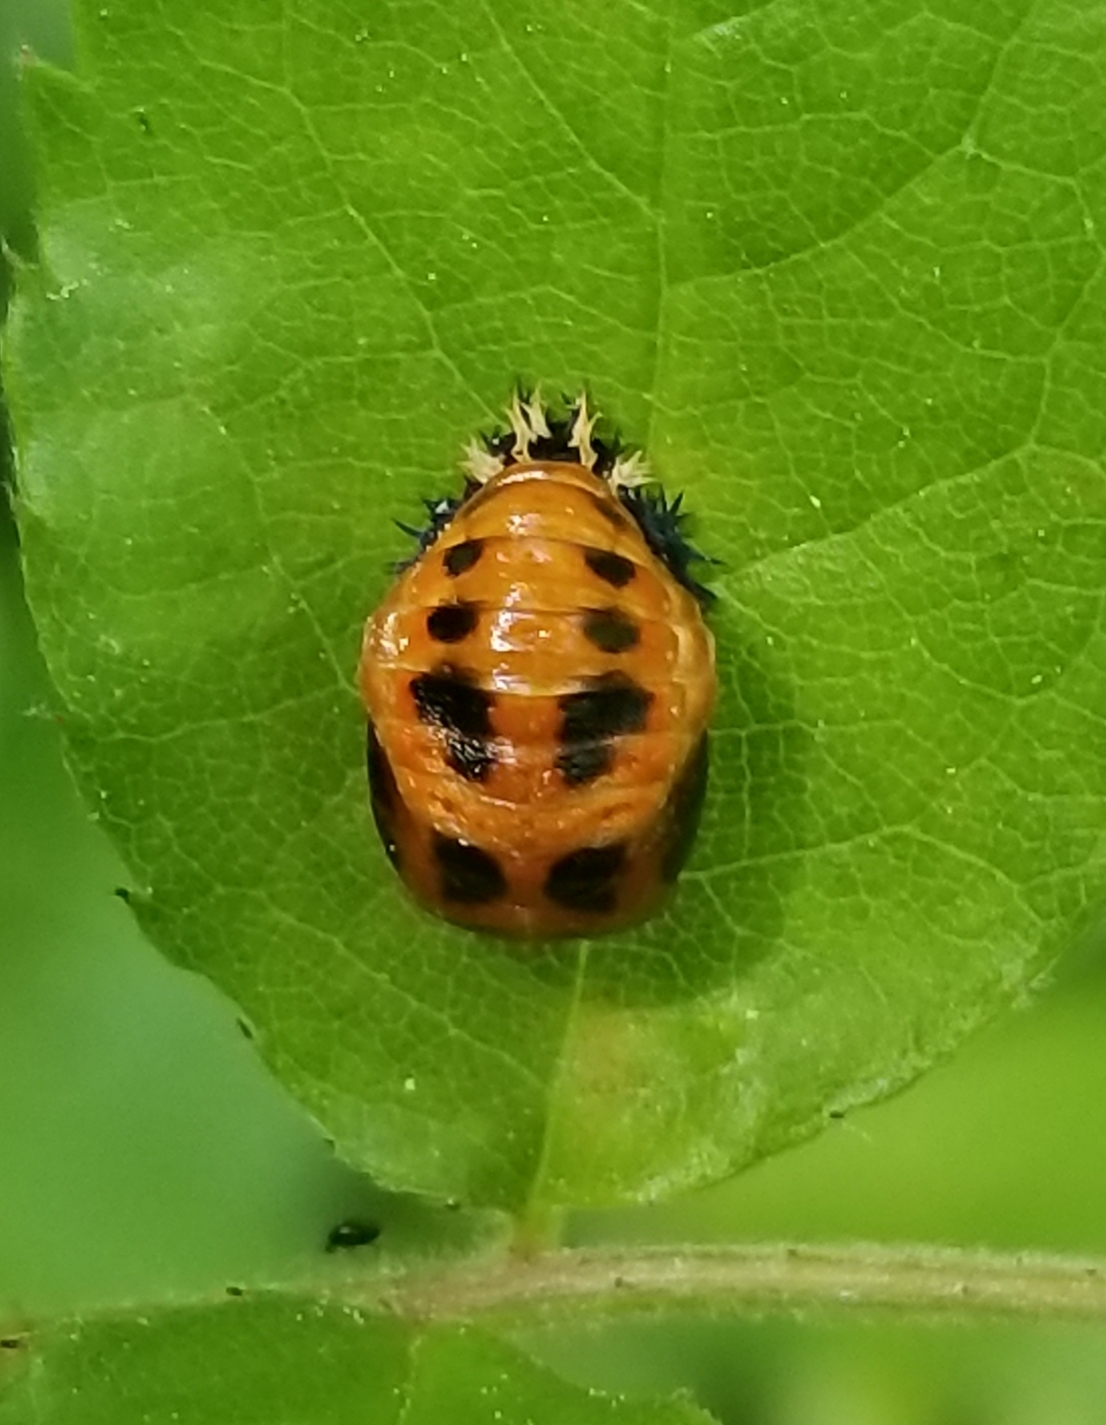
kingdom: Animalia
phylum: Arthropoda
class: Insecta
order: Coleoptera
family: Coccinellidae
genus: Harmonia
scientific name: Harmonia axyridis
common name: Harlequin ladybird
